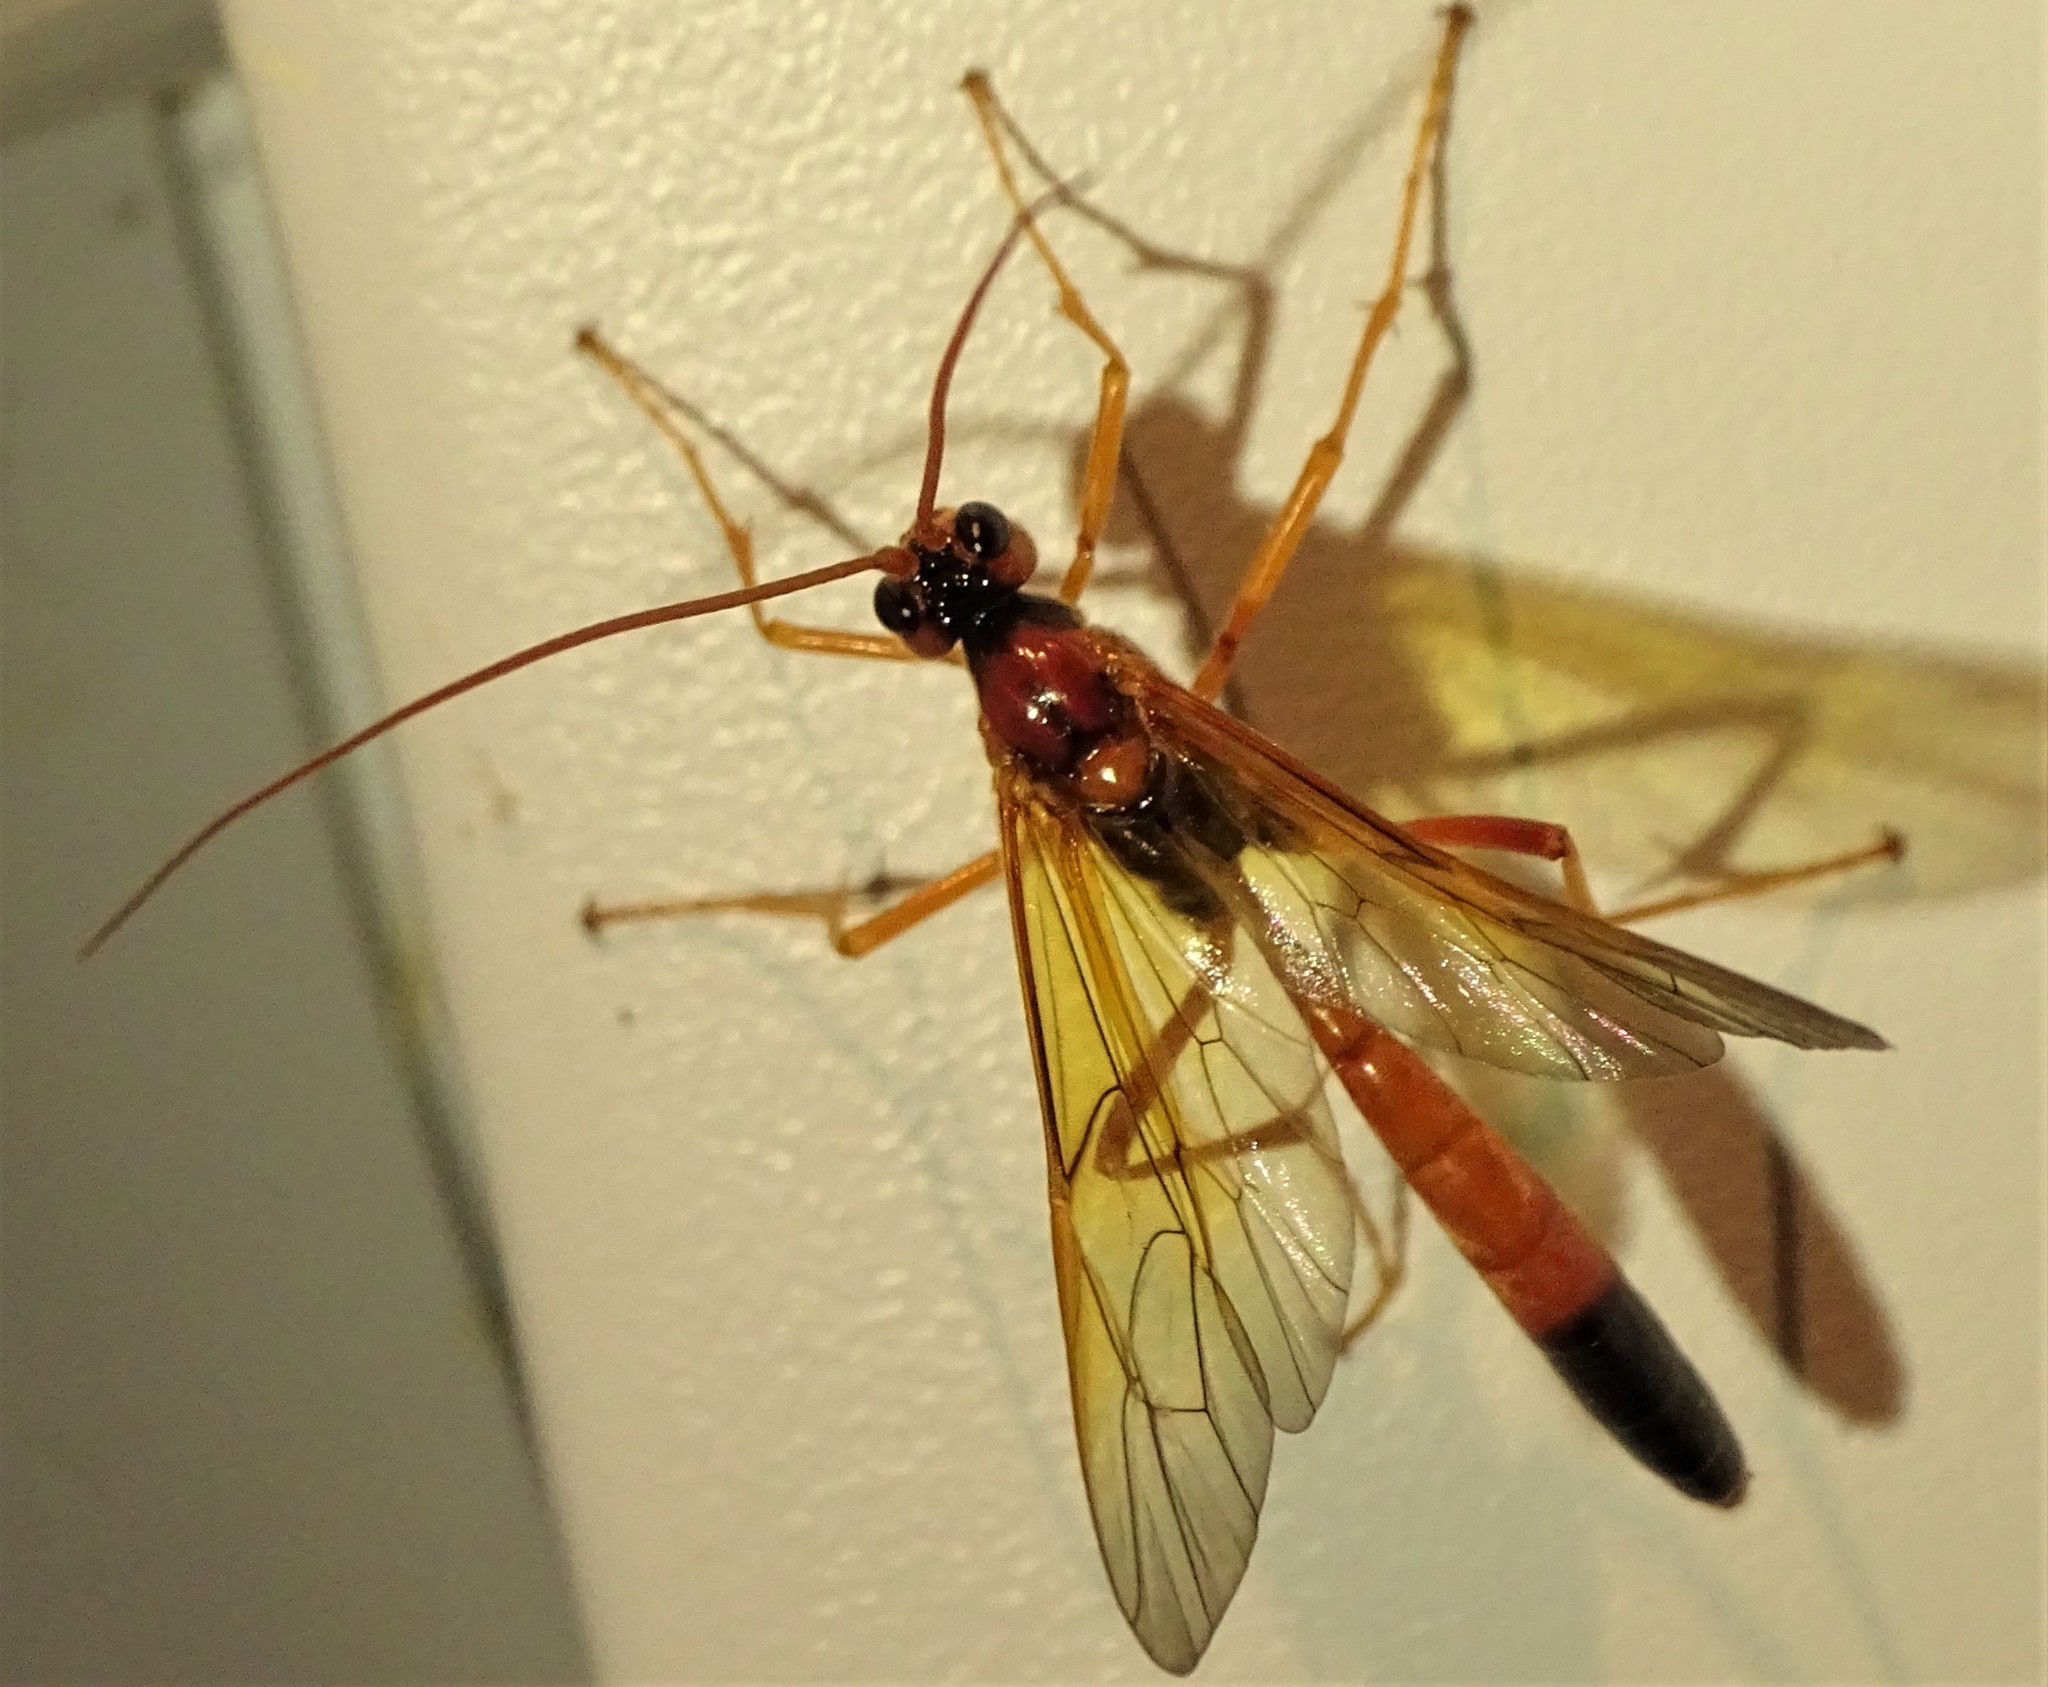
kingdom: Animalia
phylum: Arthropoda
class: Insecta
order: Hymenoptera
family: Ichneumonidae
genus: Opheltes
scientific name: Opheltes glaucopterus
